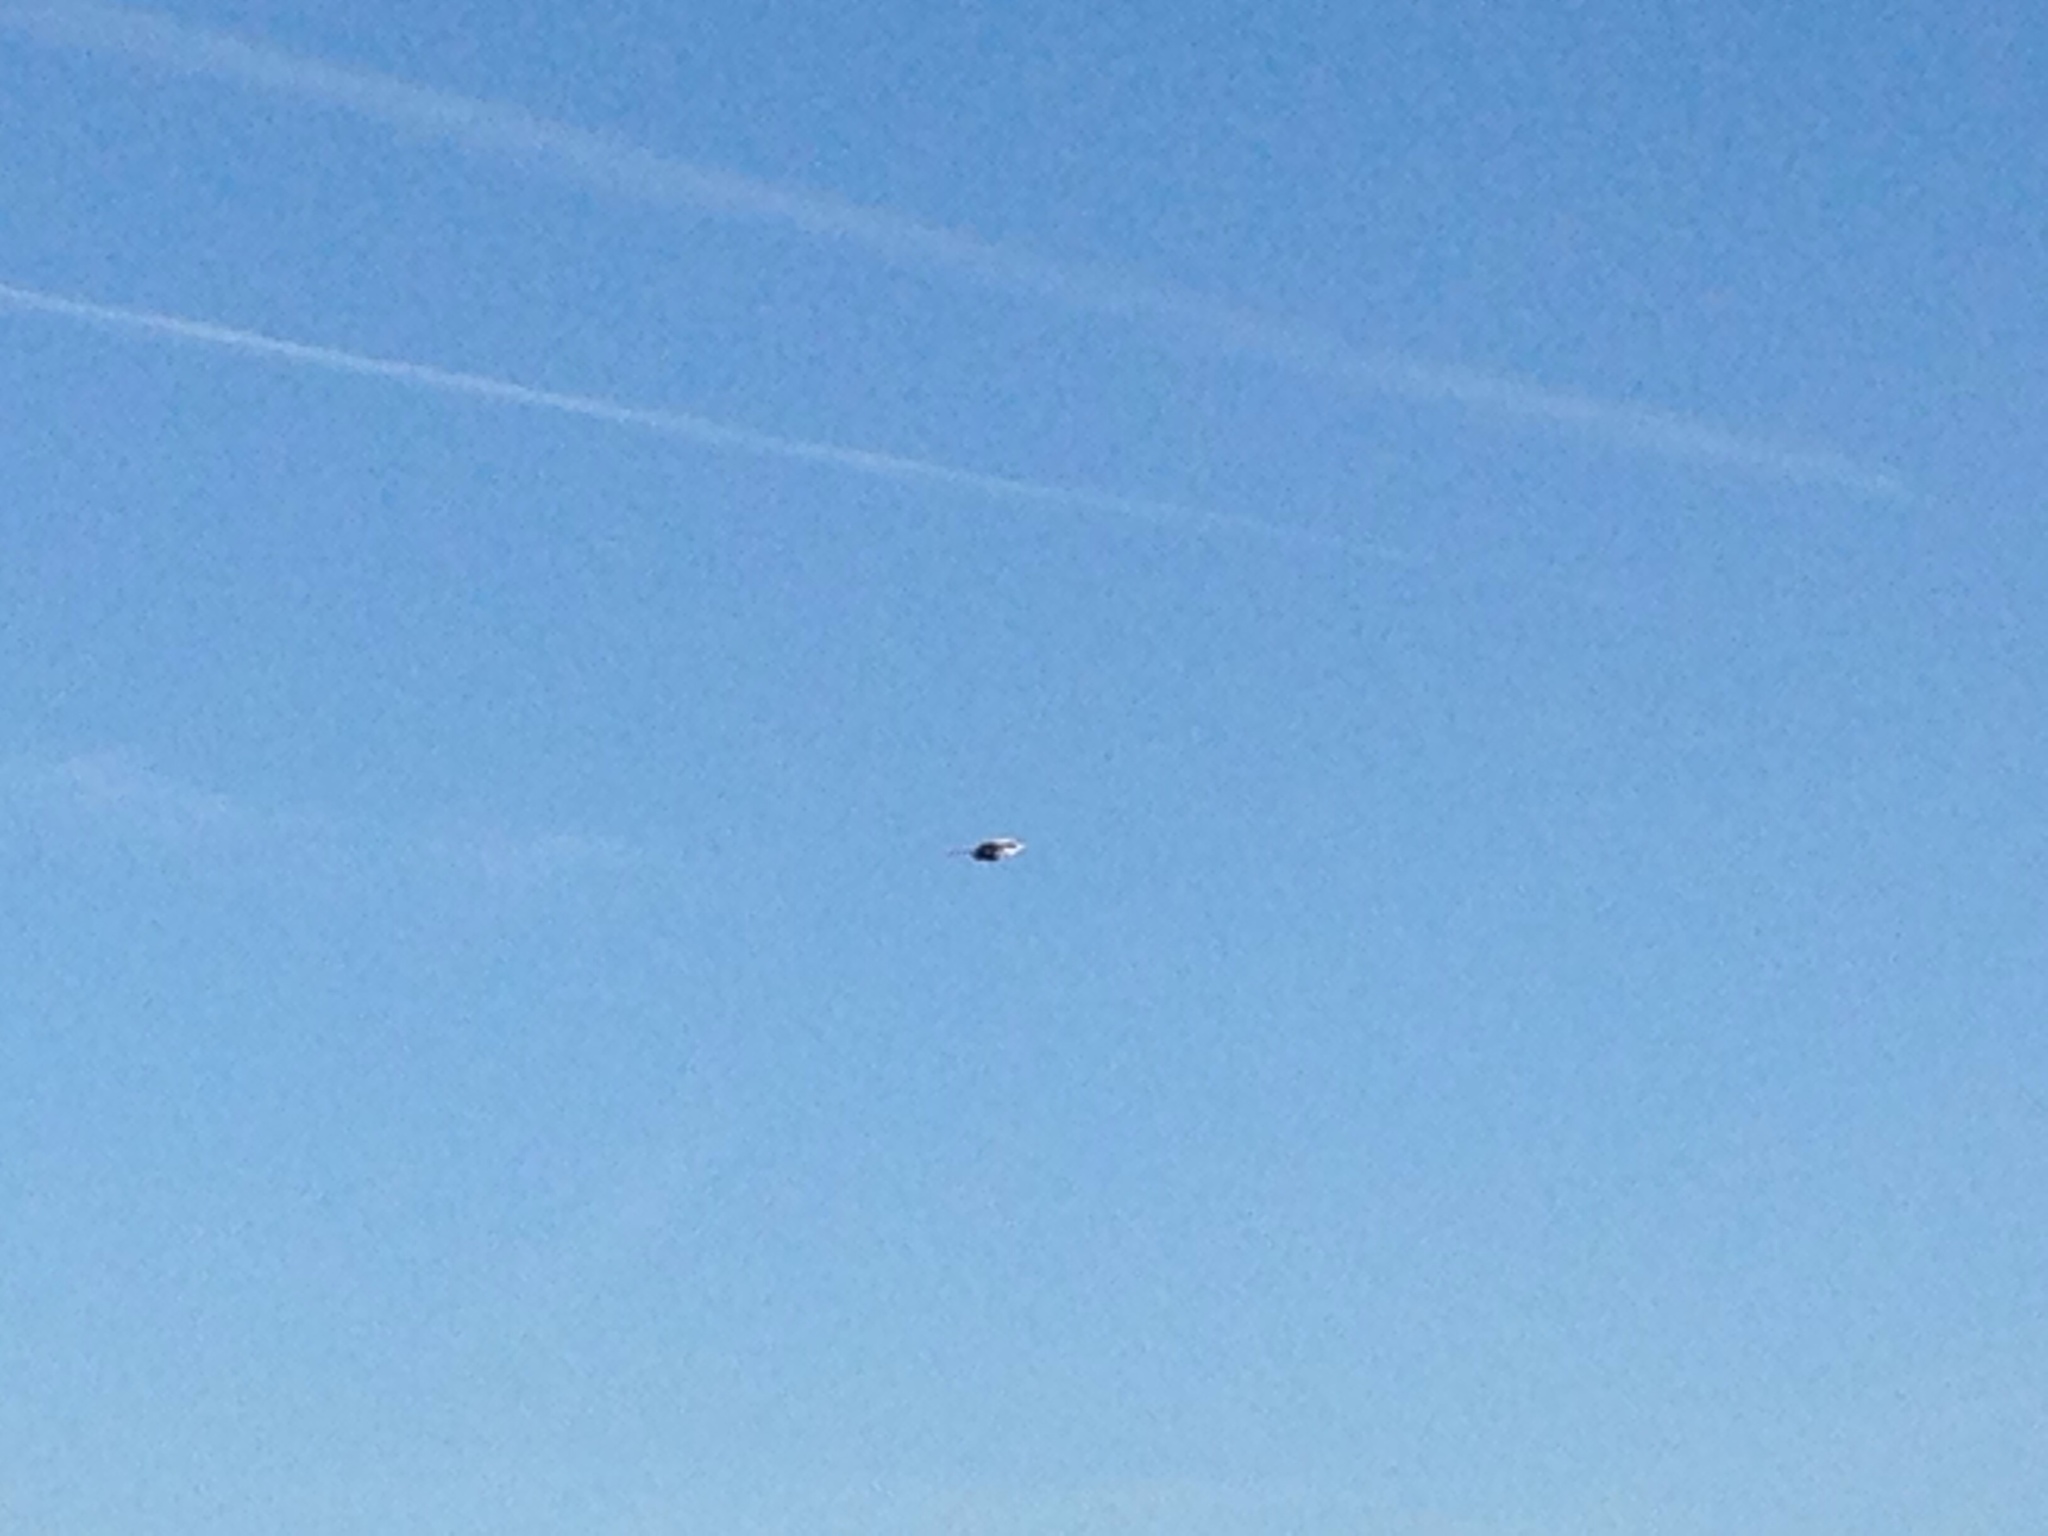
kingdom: Animalia
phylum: Chordata
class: Aves
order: Pelecaniformes
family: Ardeidae
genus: Ardea
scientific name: Ardea cinerea
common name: Grey heron
